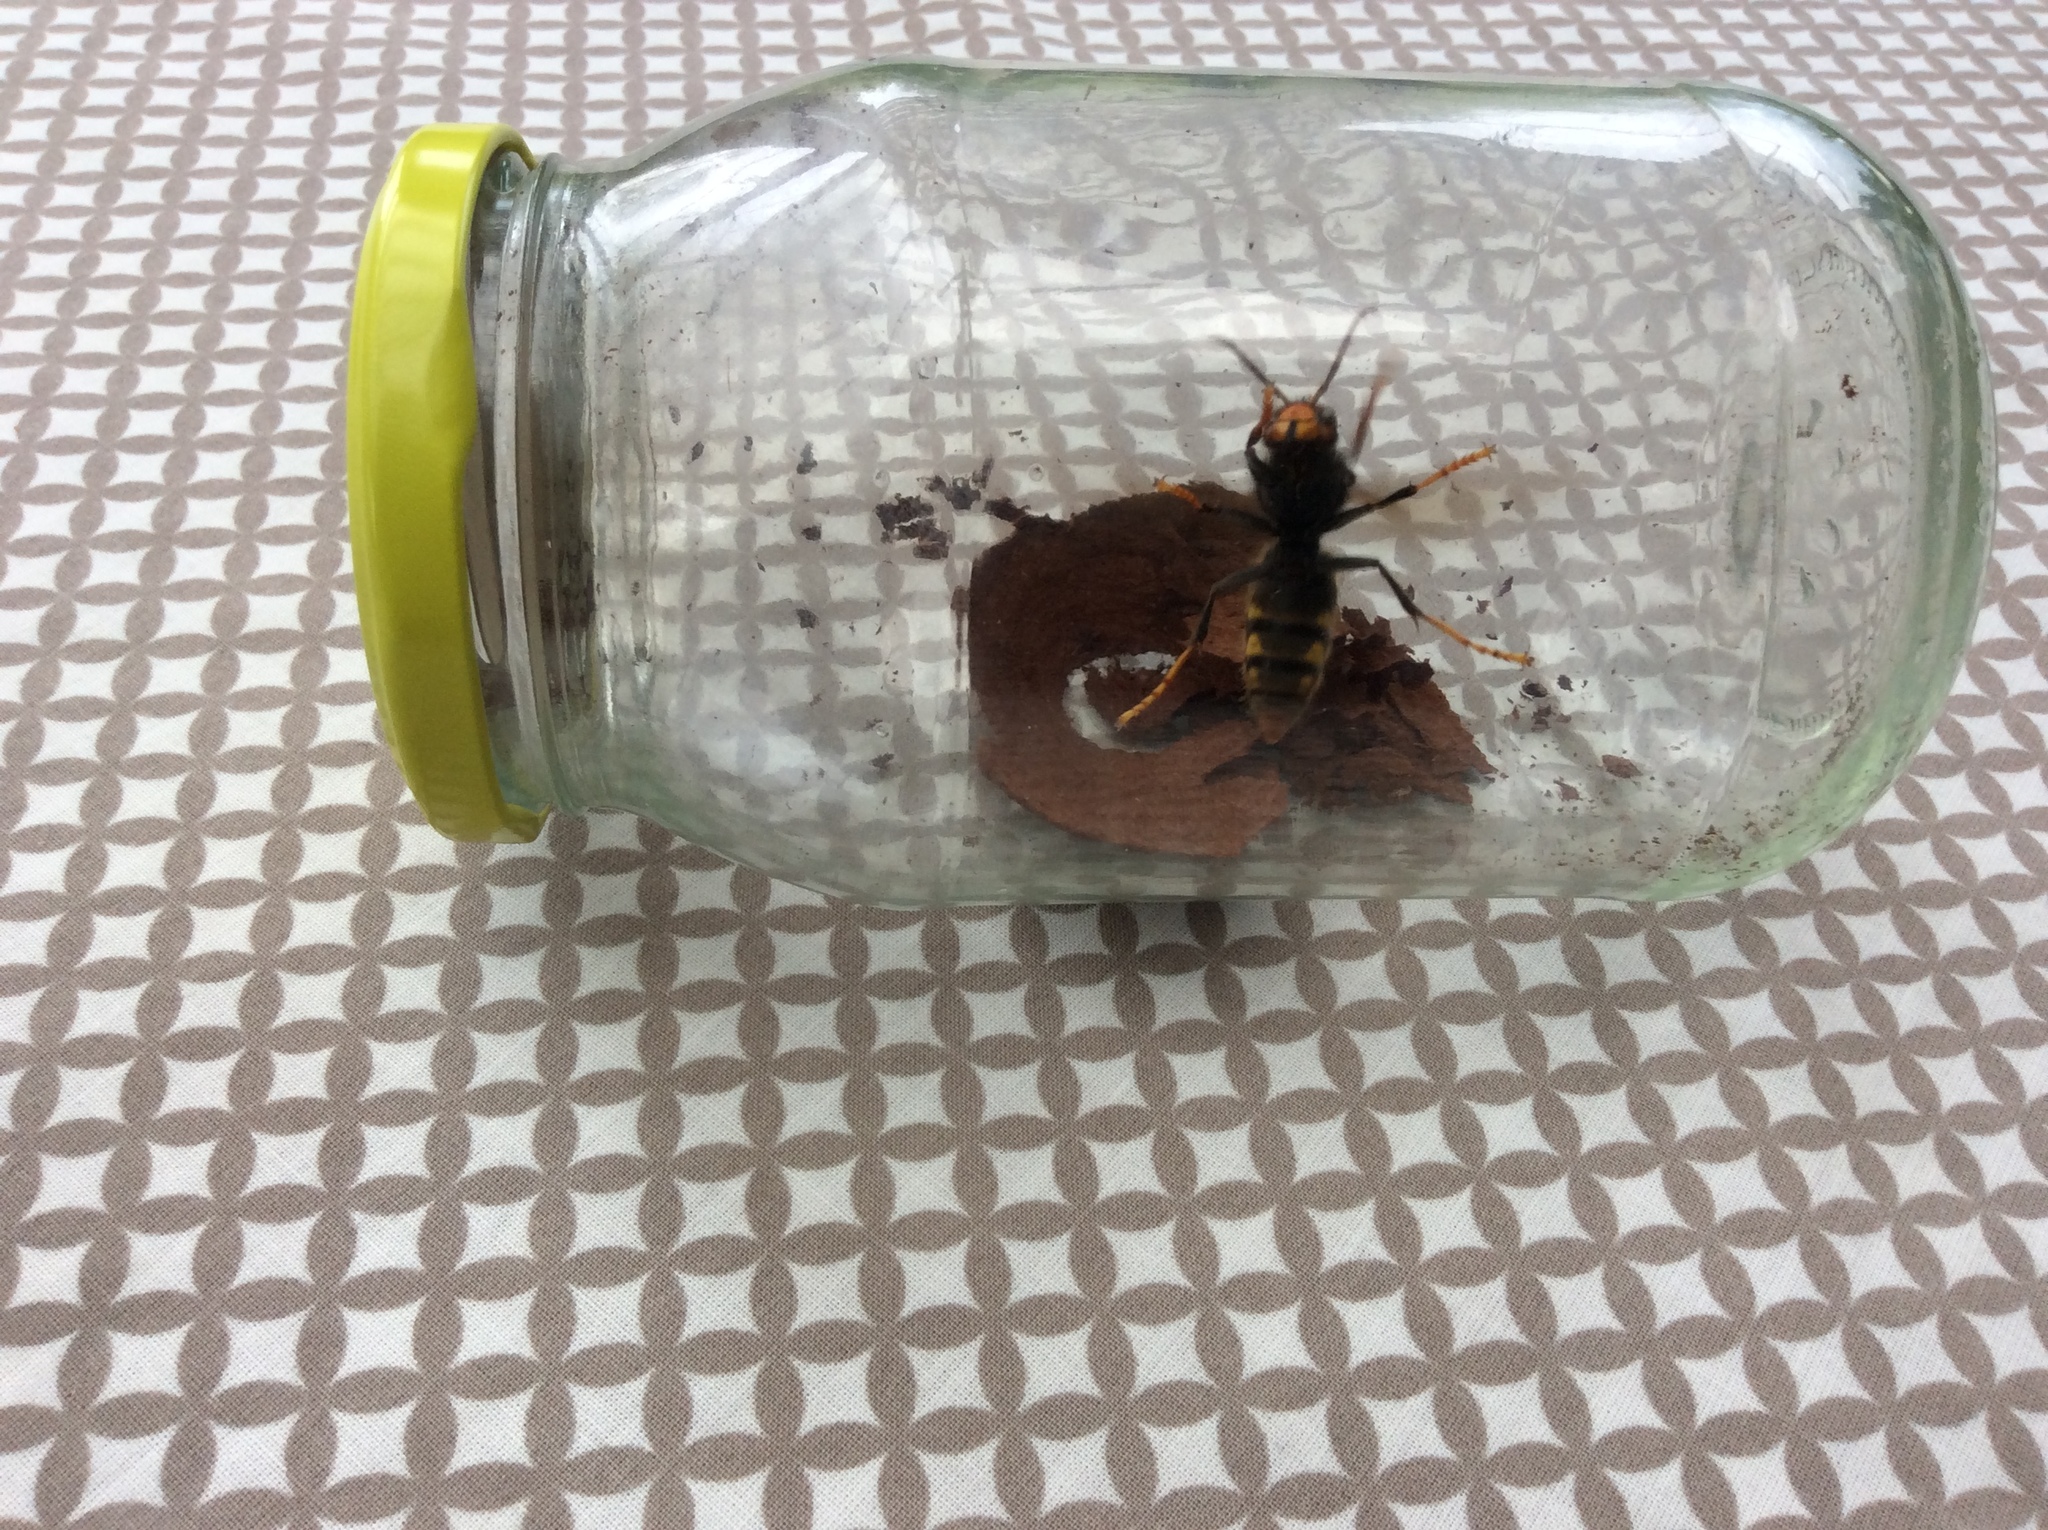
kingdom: Animalia
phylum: Arthropoda
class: Insecta
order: Hymenoptera
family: Vespidae
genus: Vespa
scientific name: Vespa velutina
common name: Asian hornet
